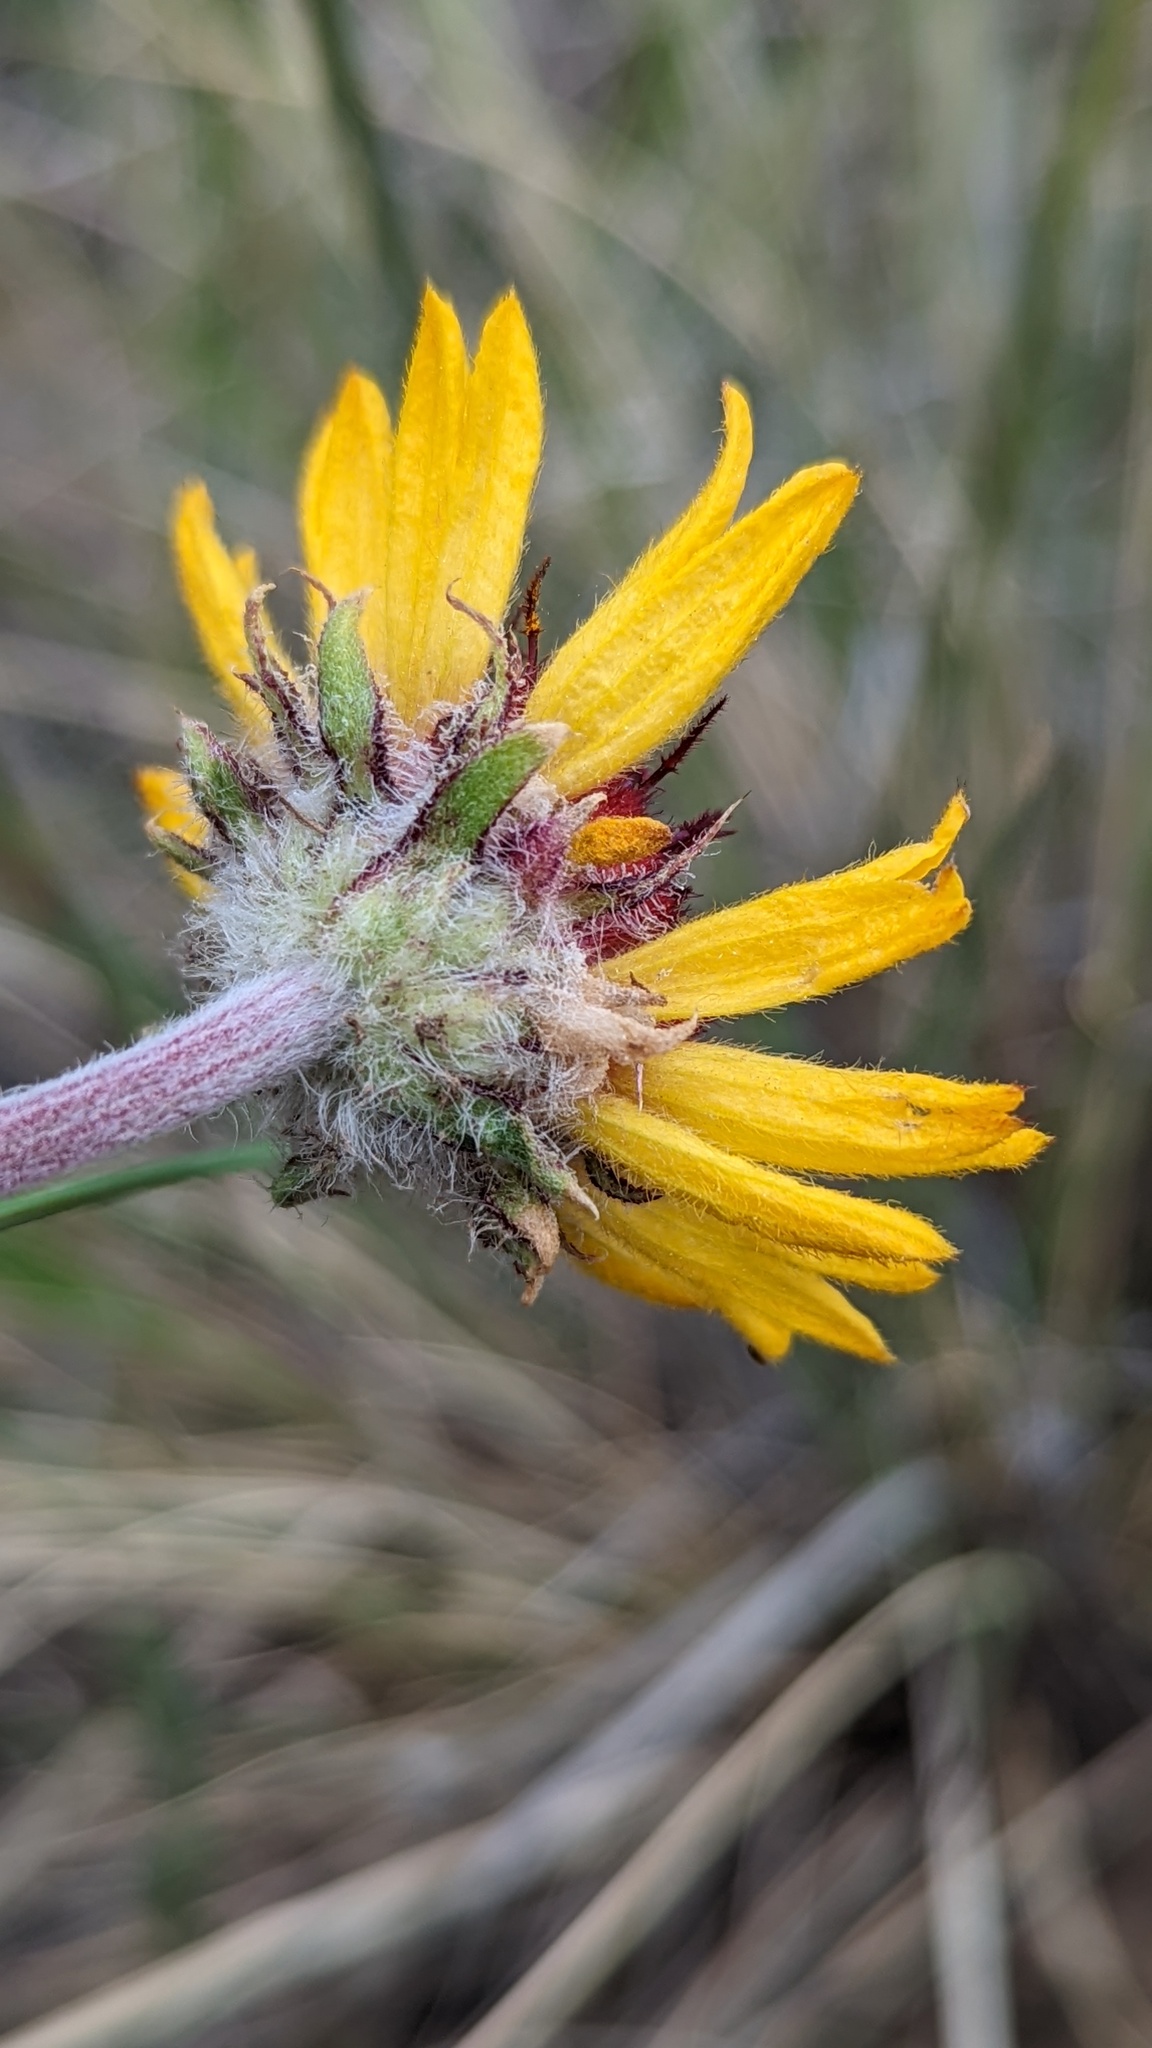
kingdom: Plantae
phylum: Tracheophyta
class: Magnoliopsida
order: Asterales
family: Asteraceae
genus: Gaillardia
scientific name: Gaillardia aristata
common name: Blanket-flower
